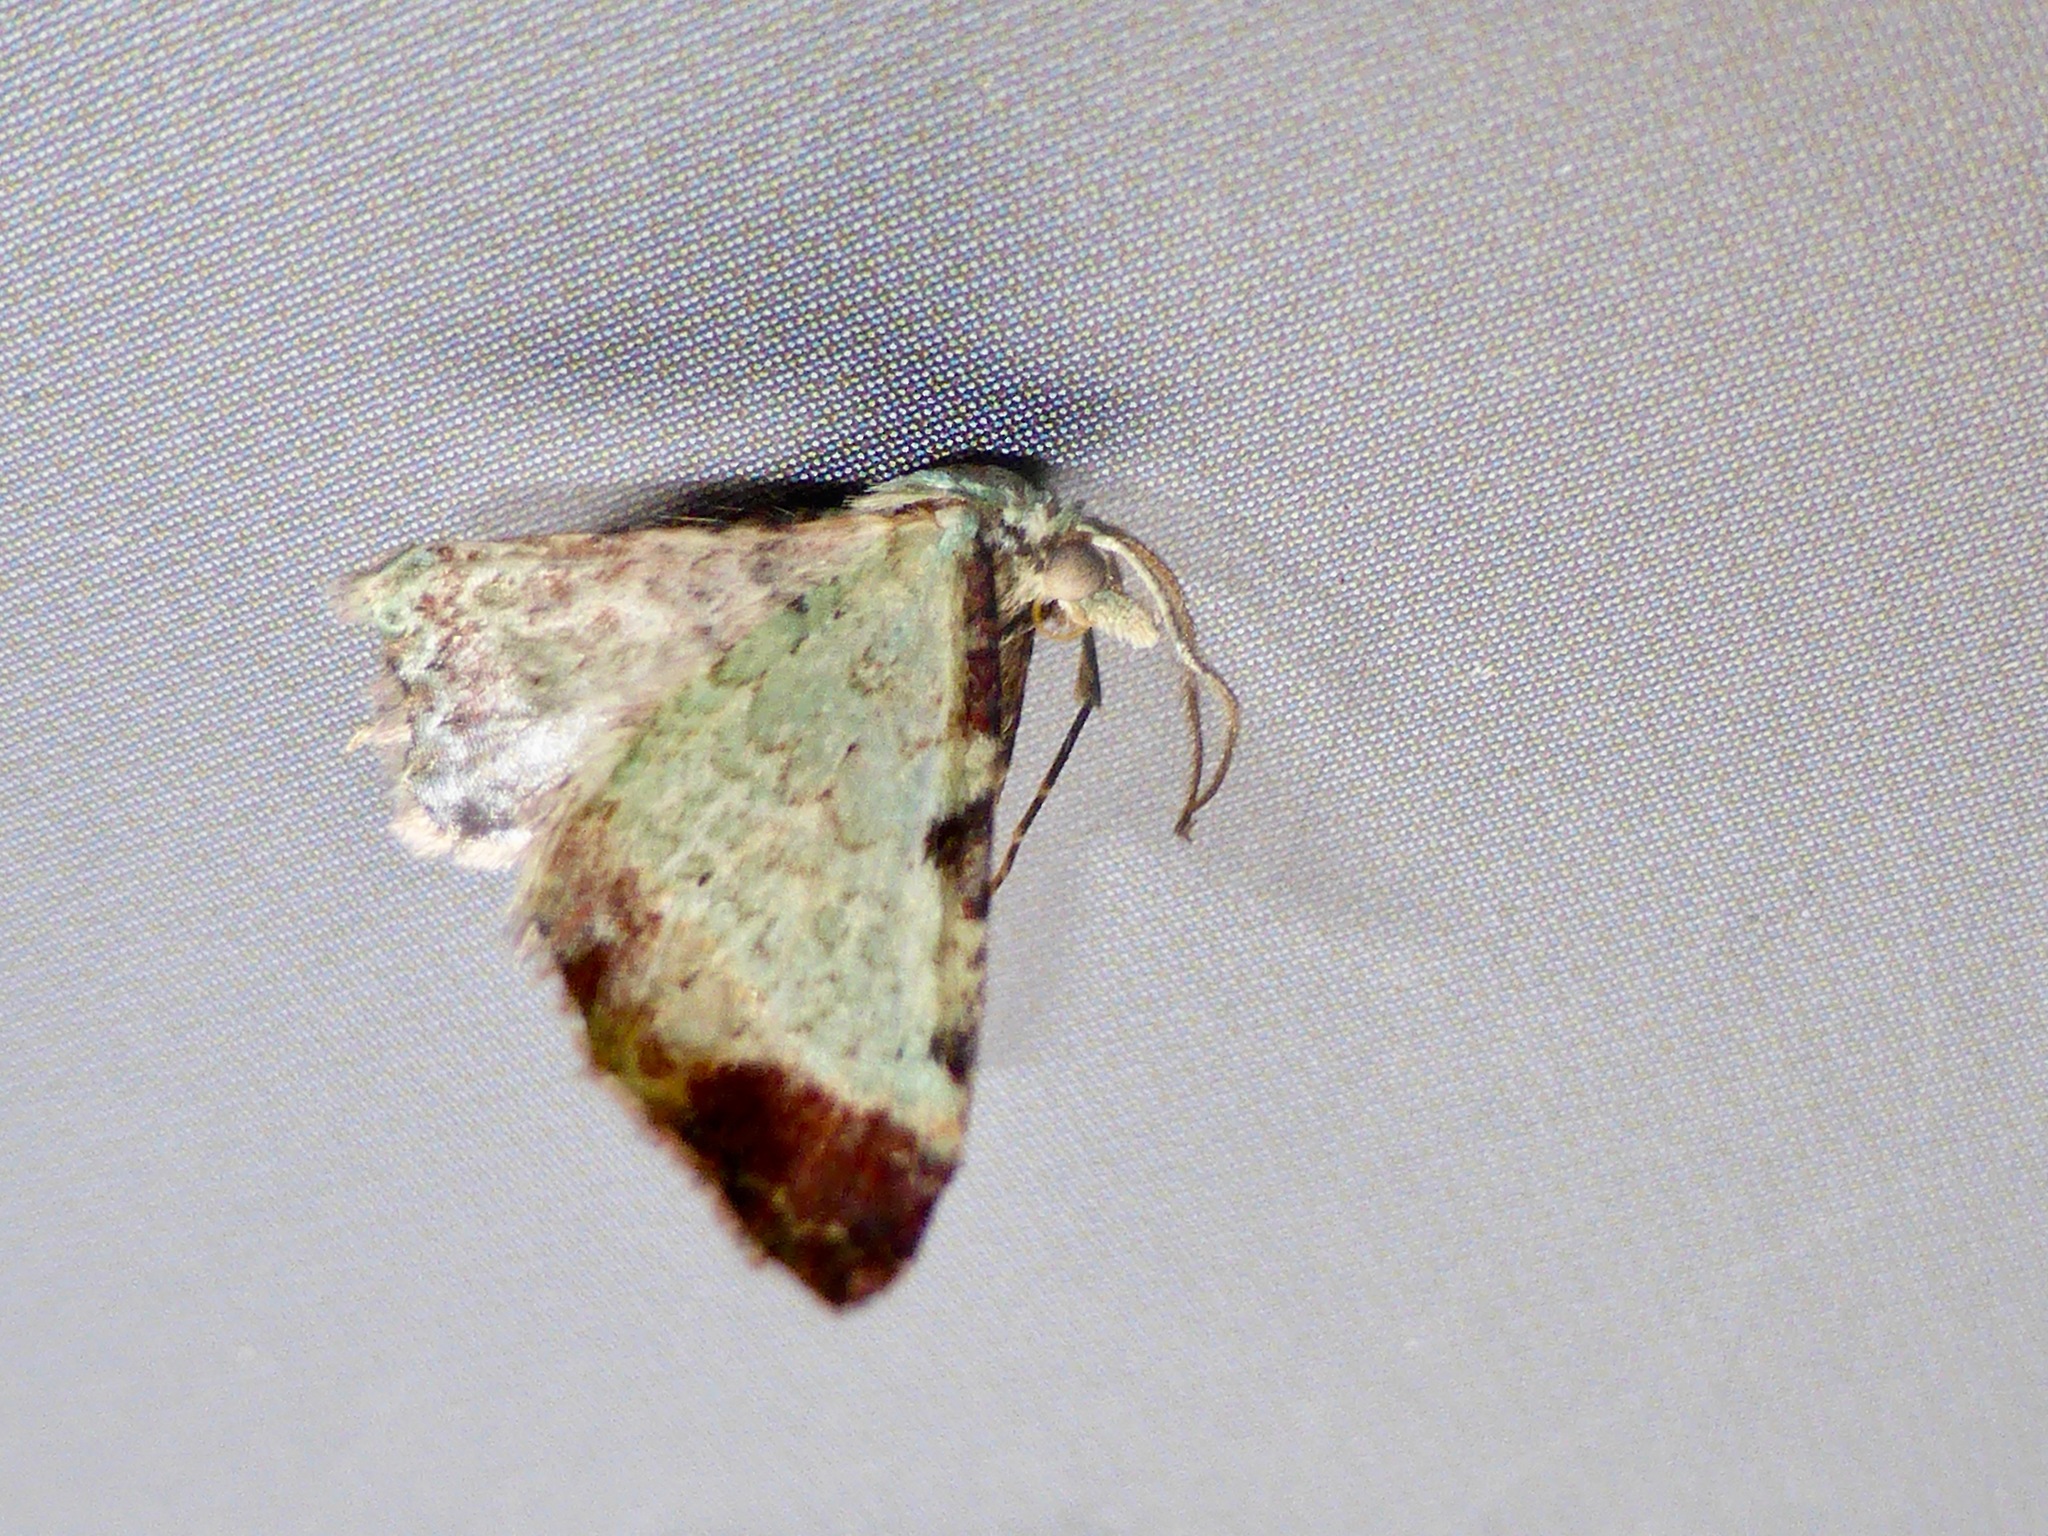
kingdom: Animalia
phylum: Arthropoda
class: Insecta
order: Lepidoptera
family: Geometridae
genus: Pasiphila
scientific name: Pasiphila magnimaculata
